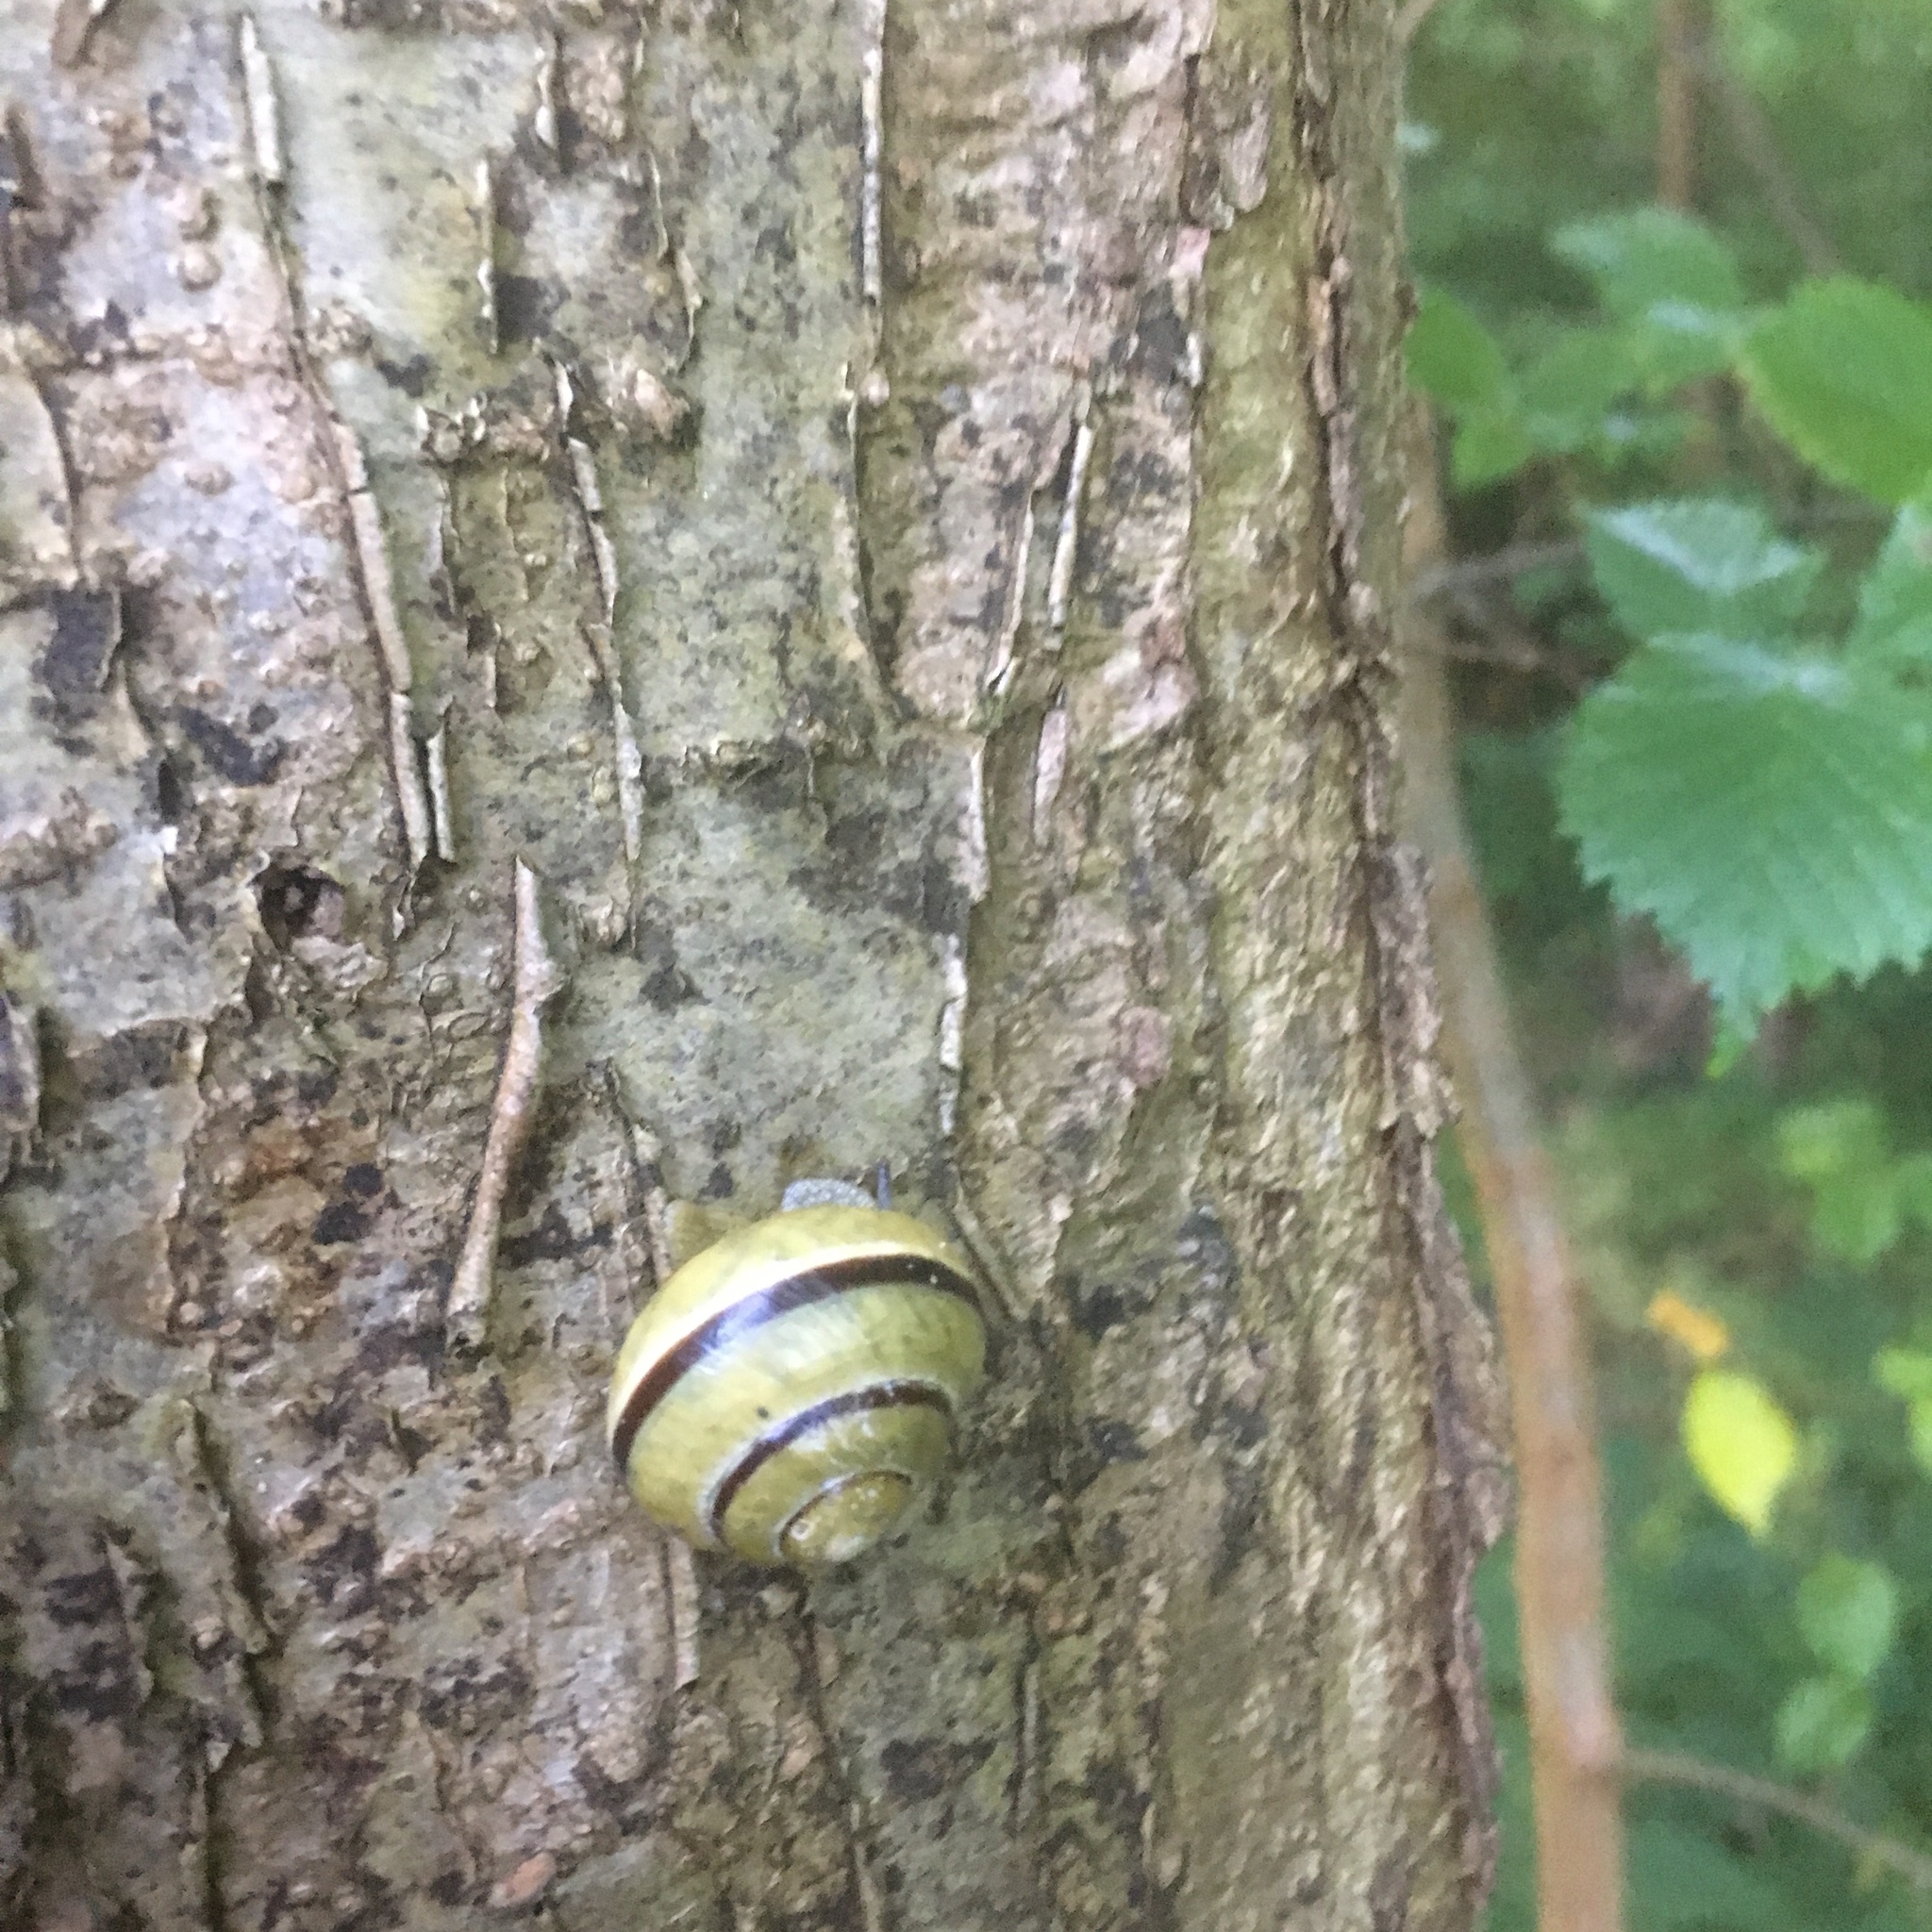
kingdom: Animalia
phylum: Mollusca
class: Gastropoda
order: Stylommatophora
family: Helicidae
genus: Cepaea
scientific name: Cepaea nemoralis
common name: Grovesnail
